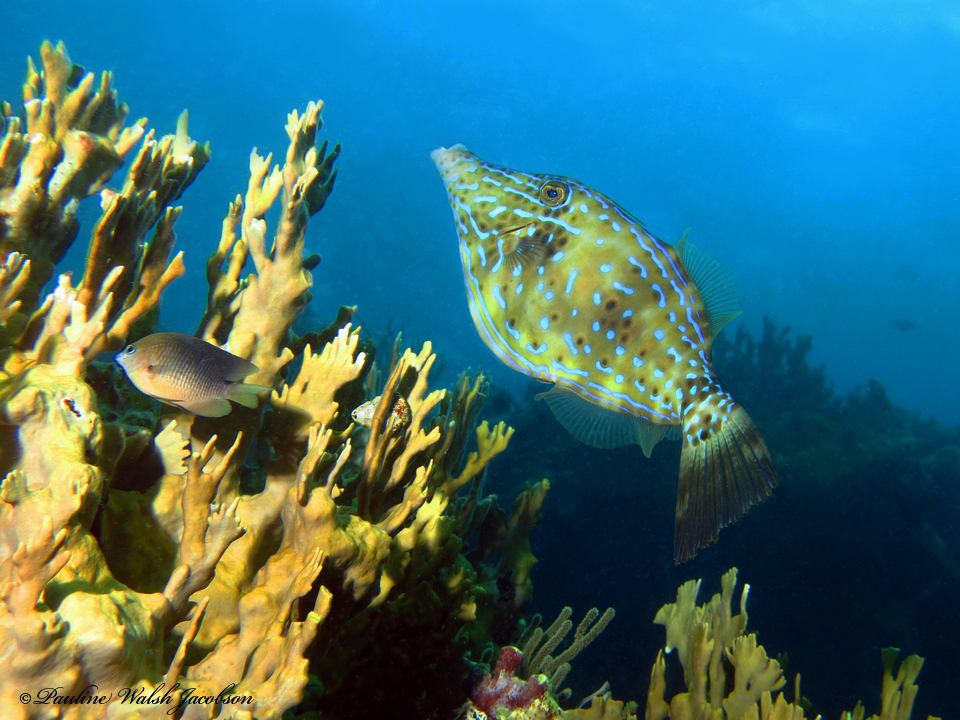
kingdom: Animalia
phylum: Chordata
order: Tetraodontiformes
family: Monacanthidae
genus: Aluterus
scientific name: Aluterus scriptus
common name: Scribbled leatherjacket filefish
